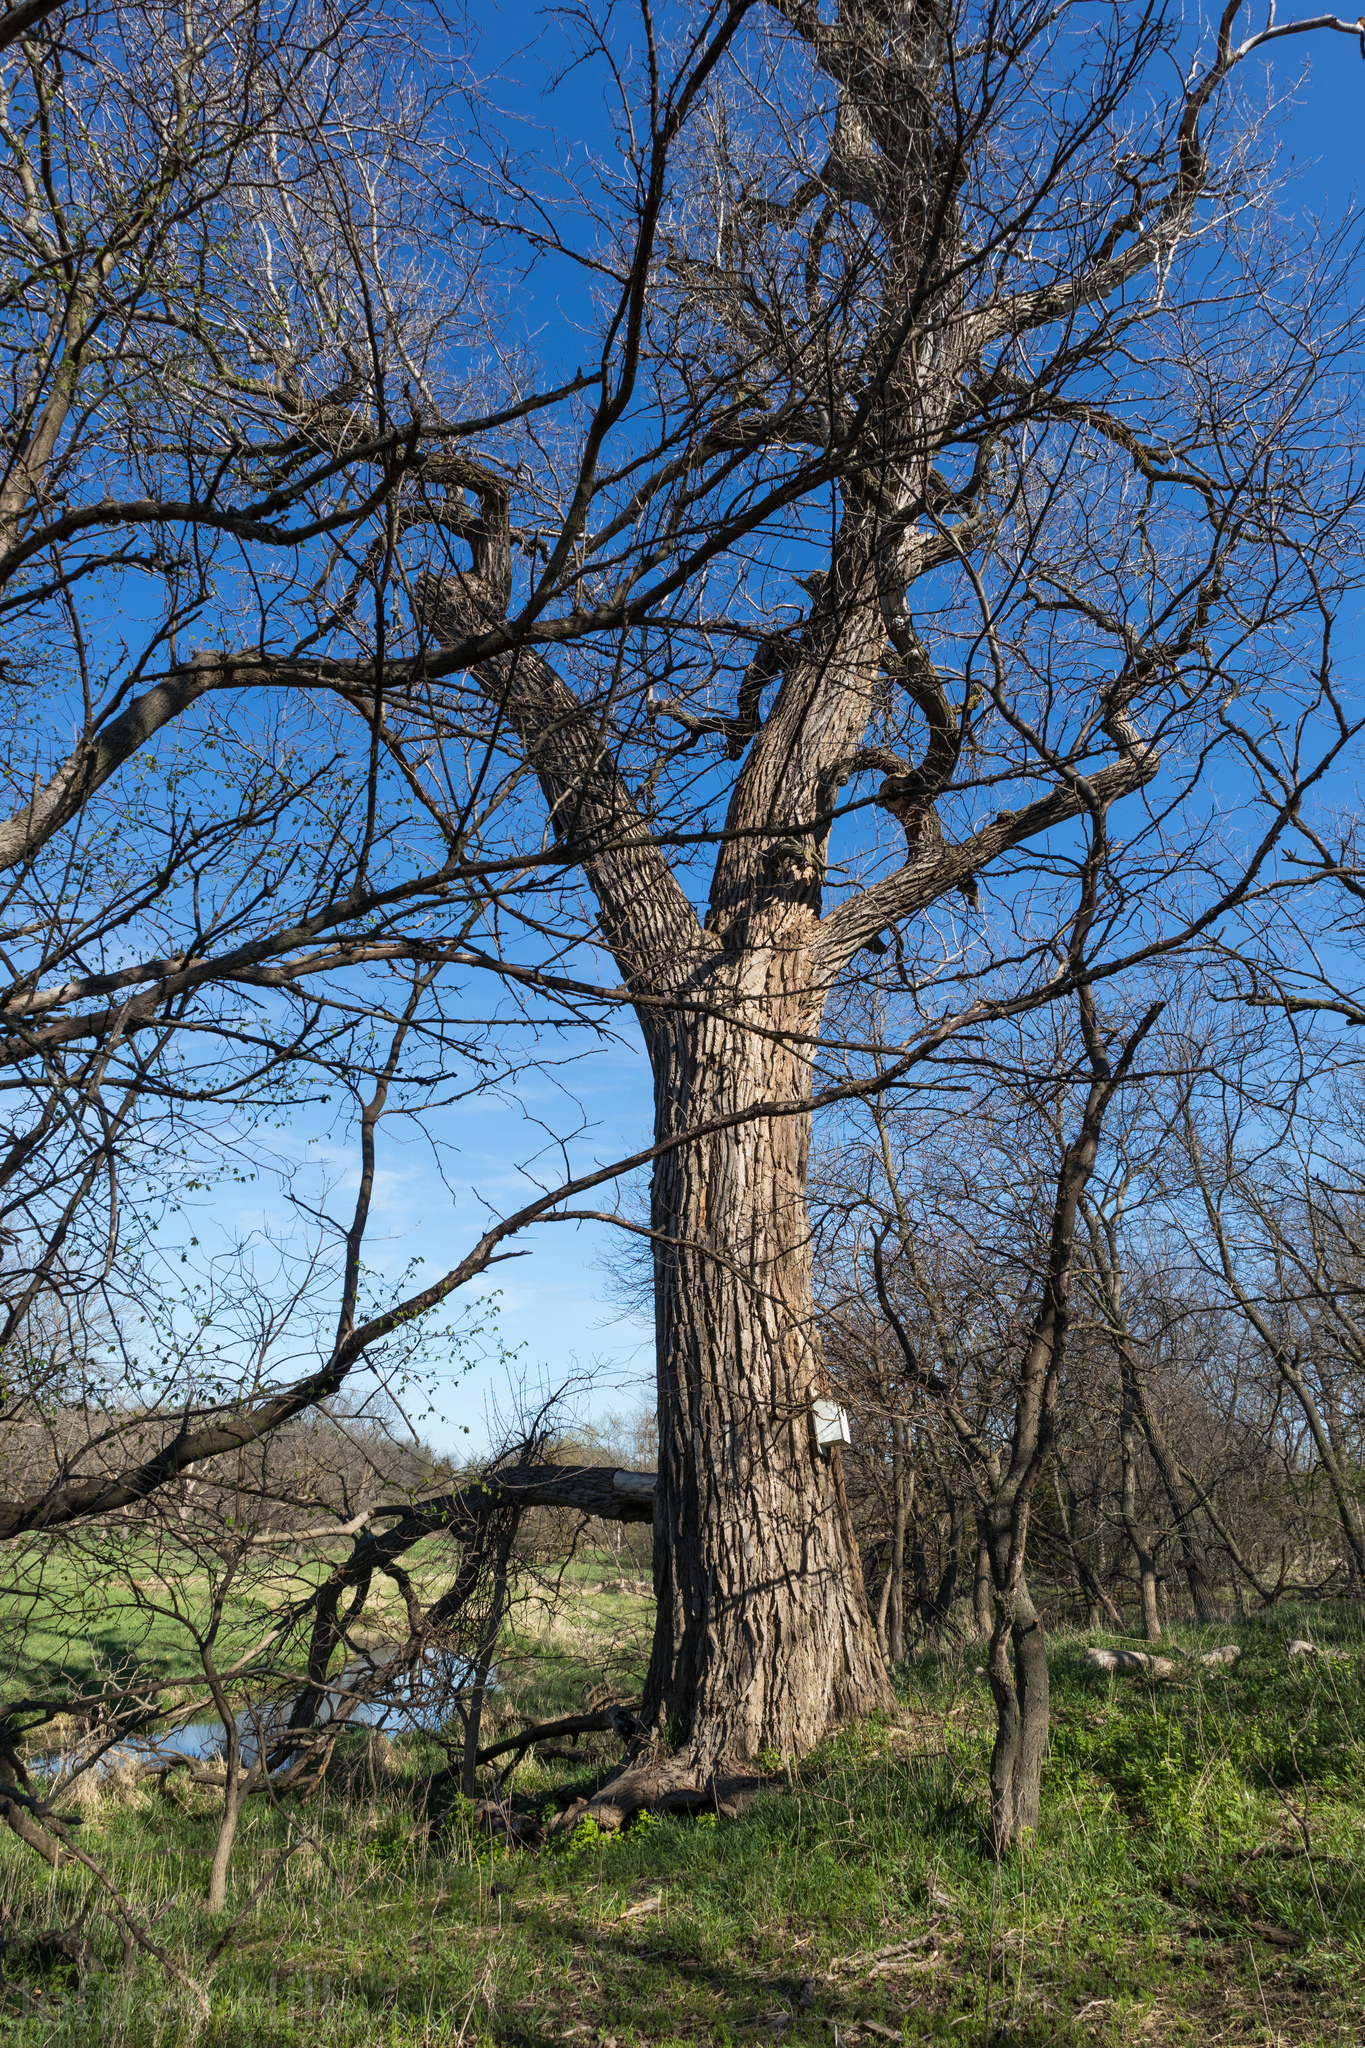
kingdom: Plantae
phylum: Tracheophyta
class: Magnoliopsida
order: Malpighiales
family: Salicaceae
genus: Populus
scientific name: Populus deltoides
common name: Eastern cottonwood
